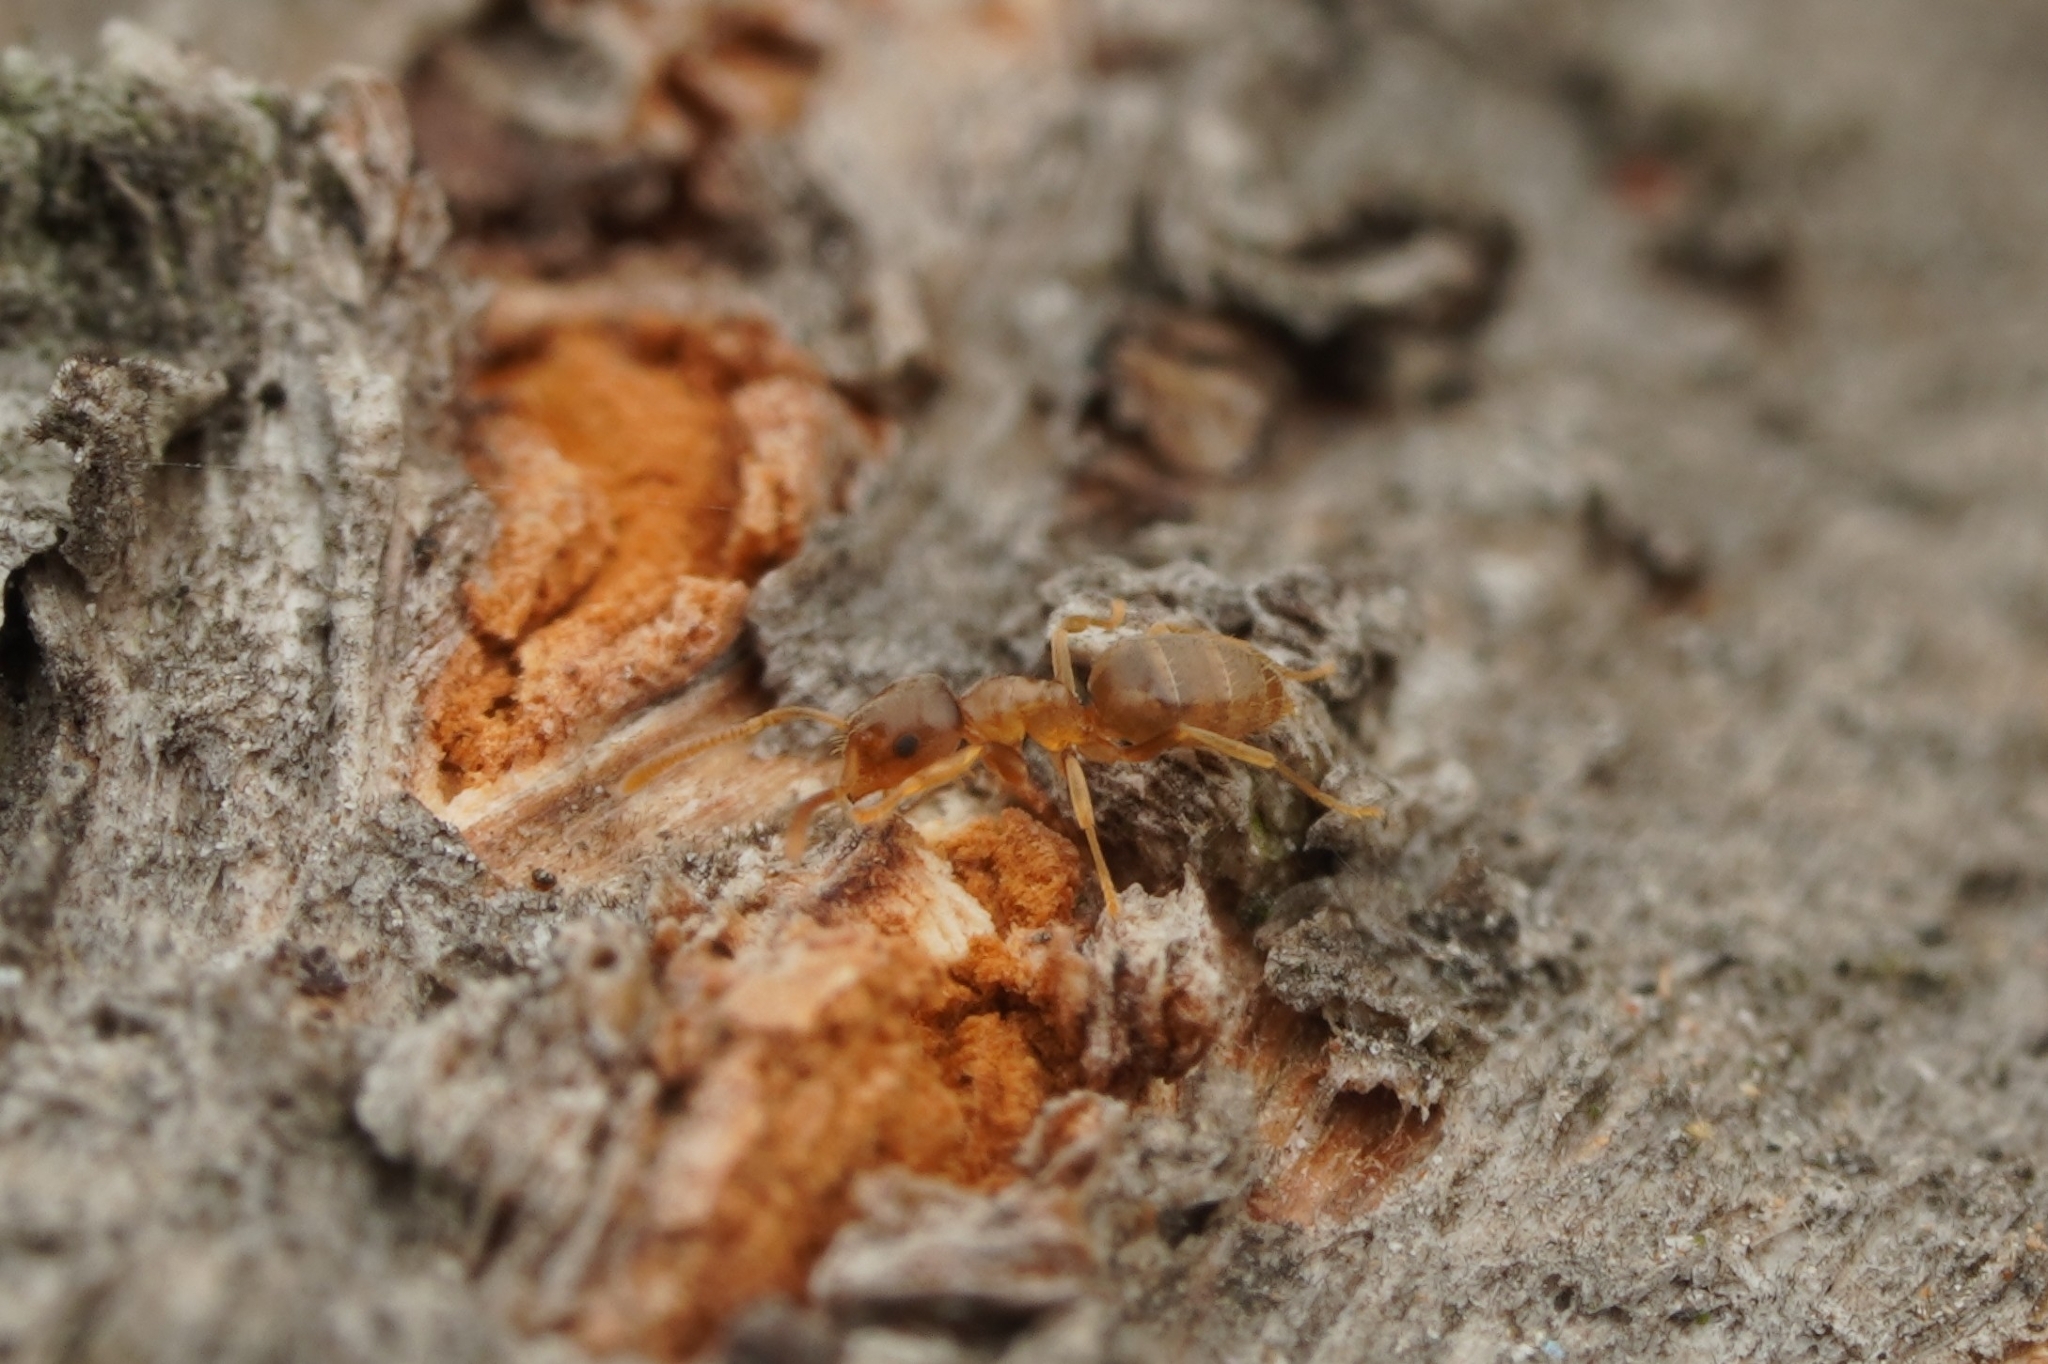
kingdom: Animalia
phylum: Arthropoda
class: Insecta
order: Hymenoptera
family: Formicidae
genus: Paraparatrechina
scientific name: Paraparatrechina
